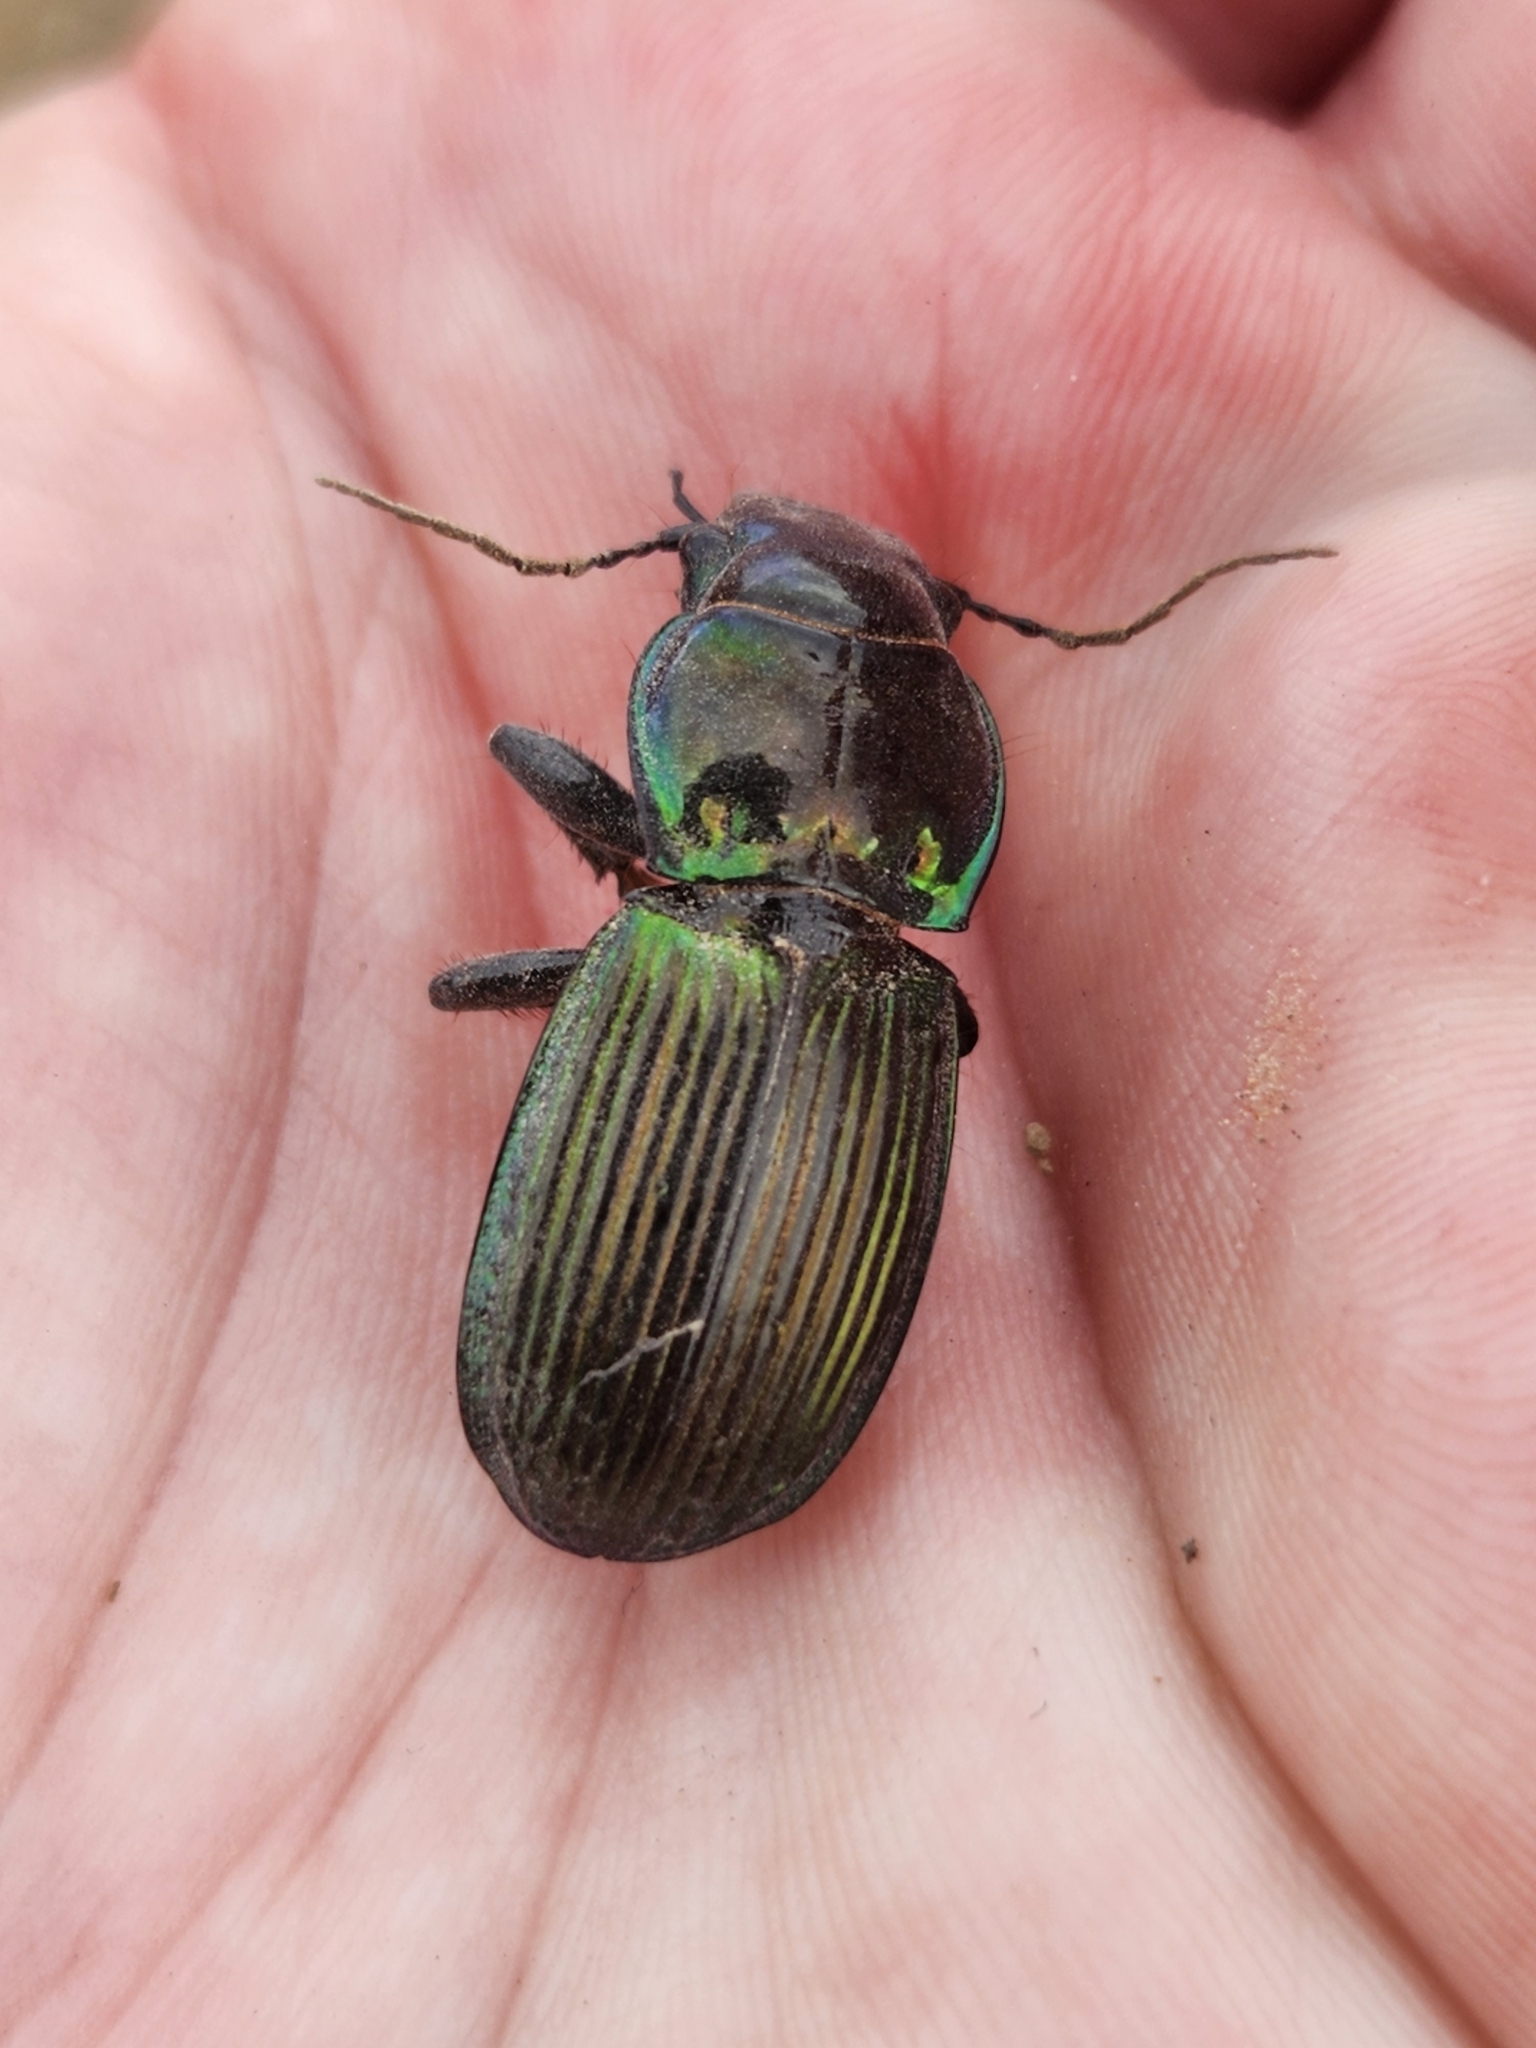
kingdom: Animalia
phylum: Arthropoda
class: Insecta
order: Coleoptera
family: Carabidae
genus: Megadromus
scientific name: Megadromus antarcticus
